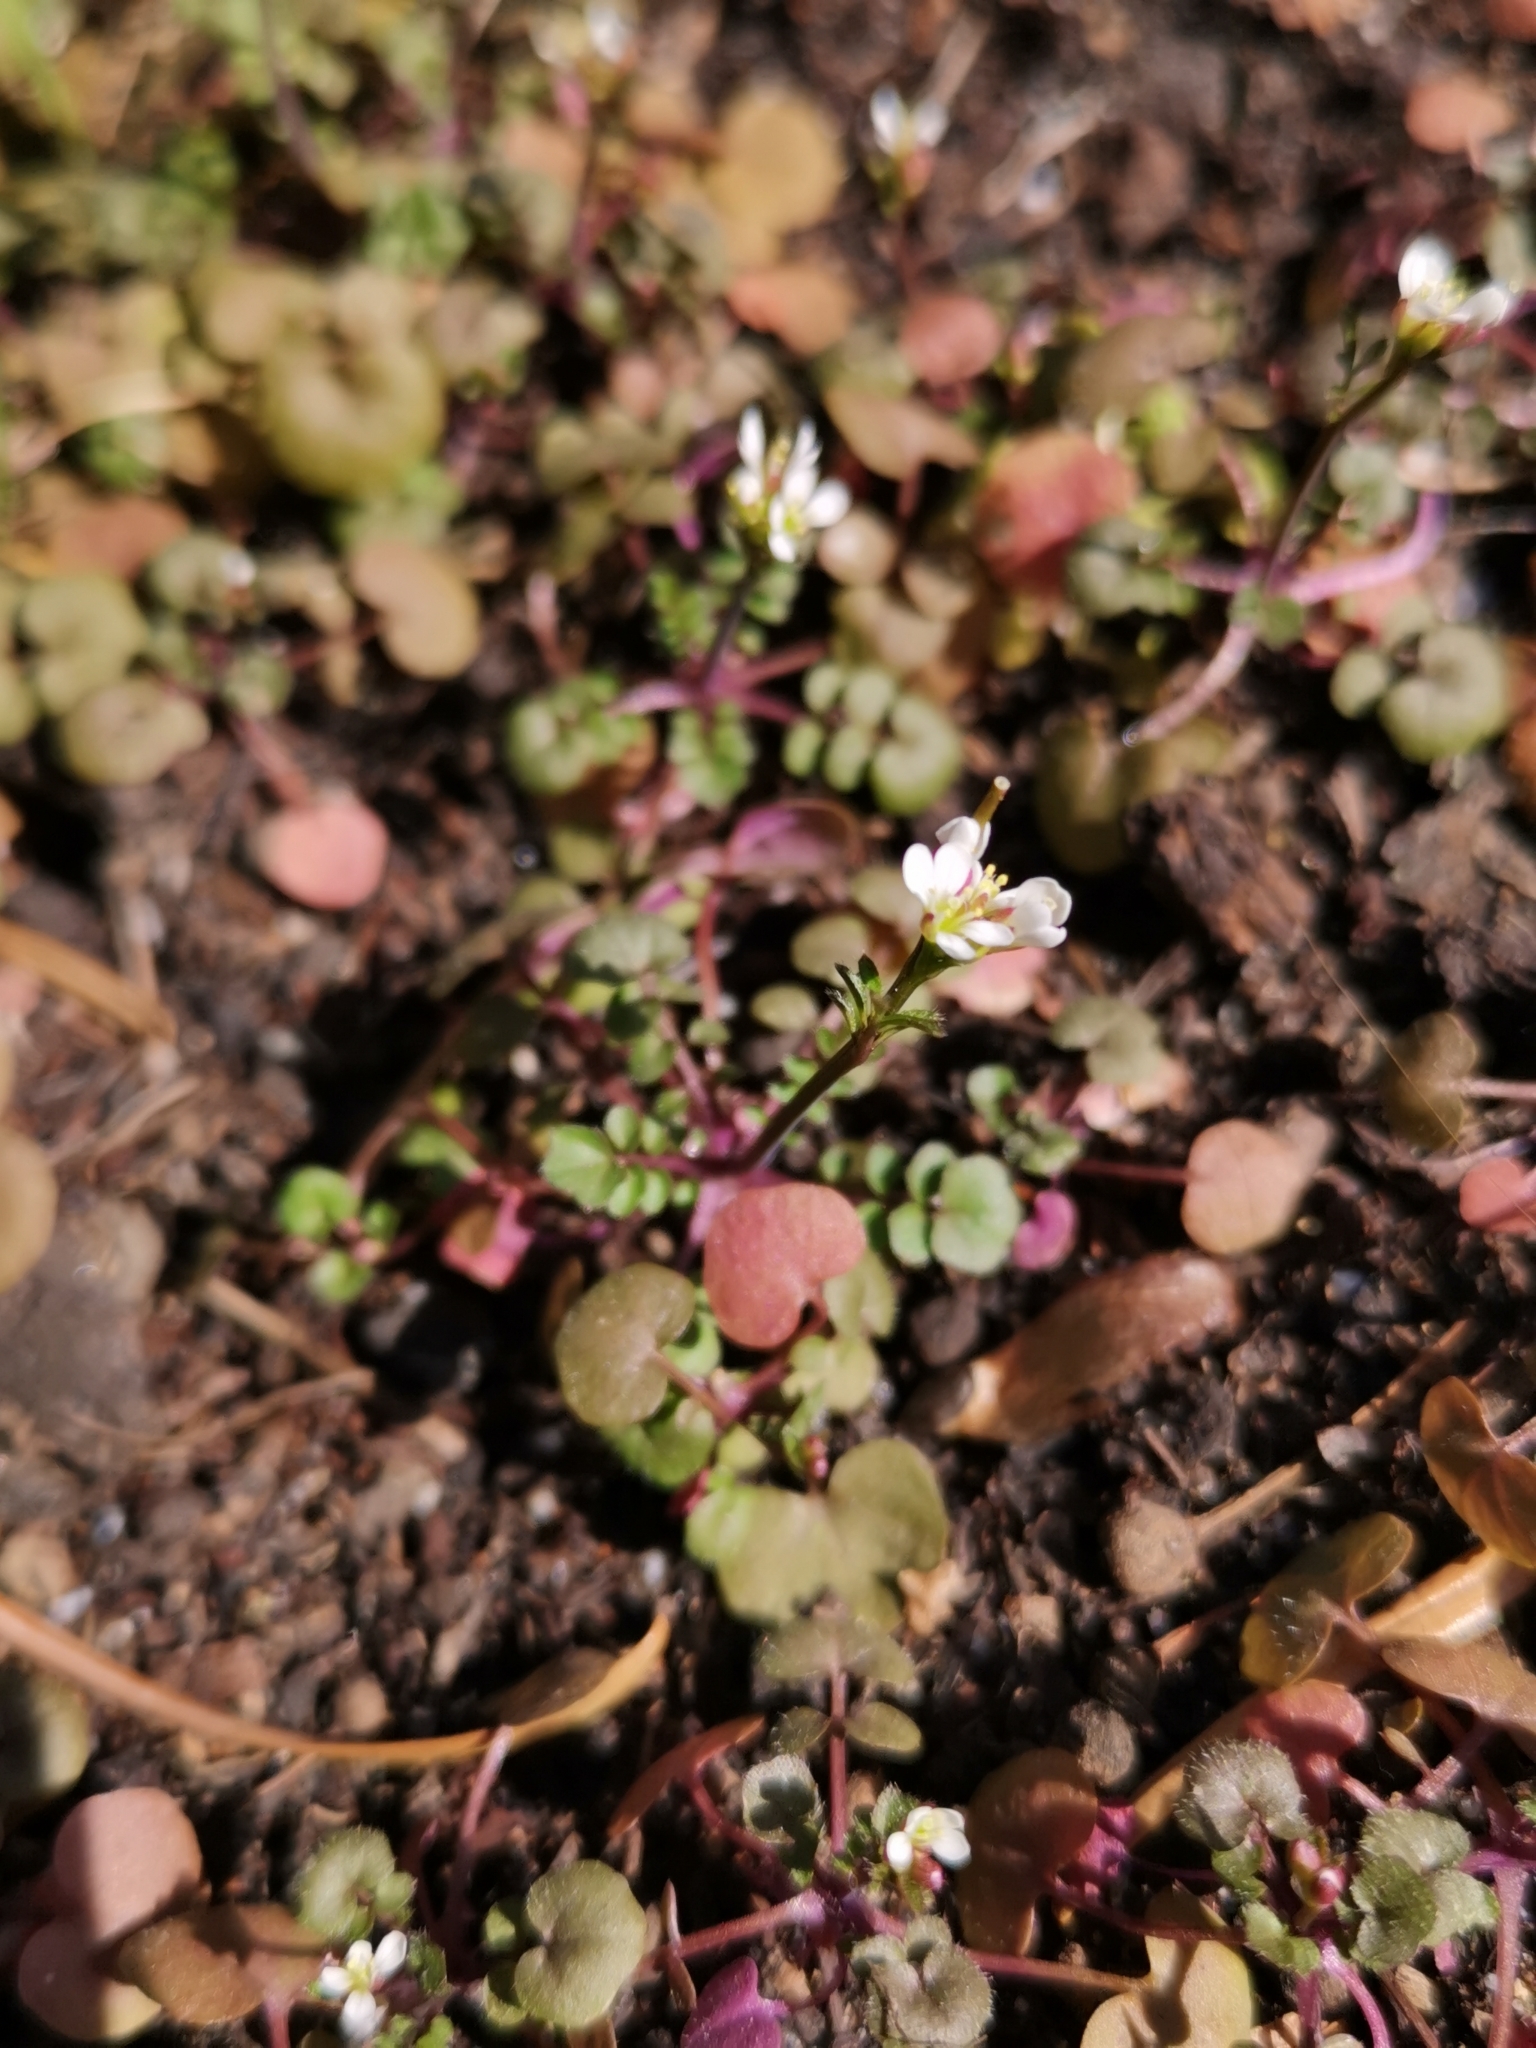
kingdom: Plantae
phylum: Tracheophyta
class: Magnoliopsida
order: Brassicales
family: Brassicaceae
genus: Cardamine
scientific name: Cardamine hirsuta
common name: Hairy bittercress
